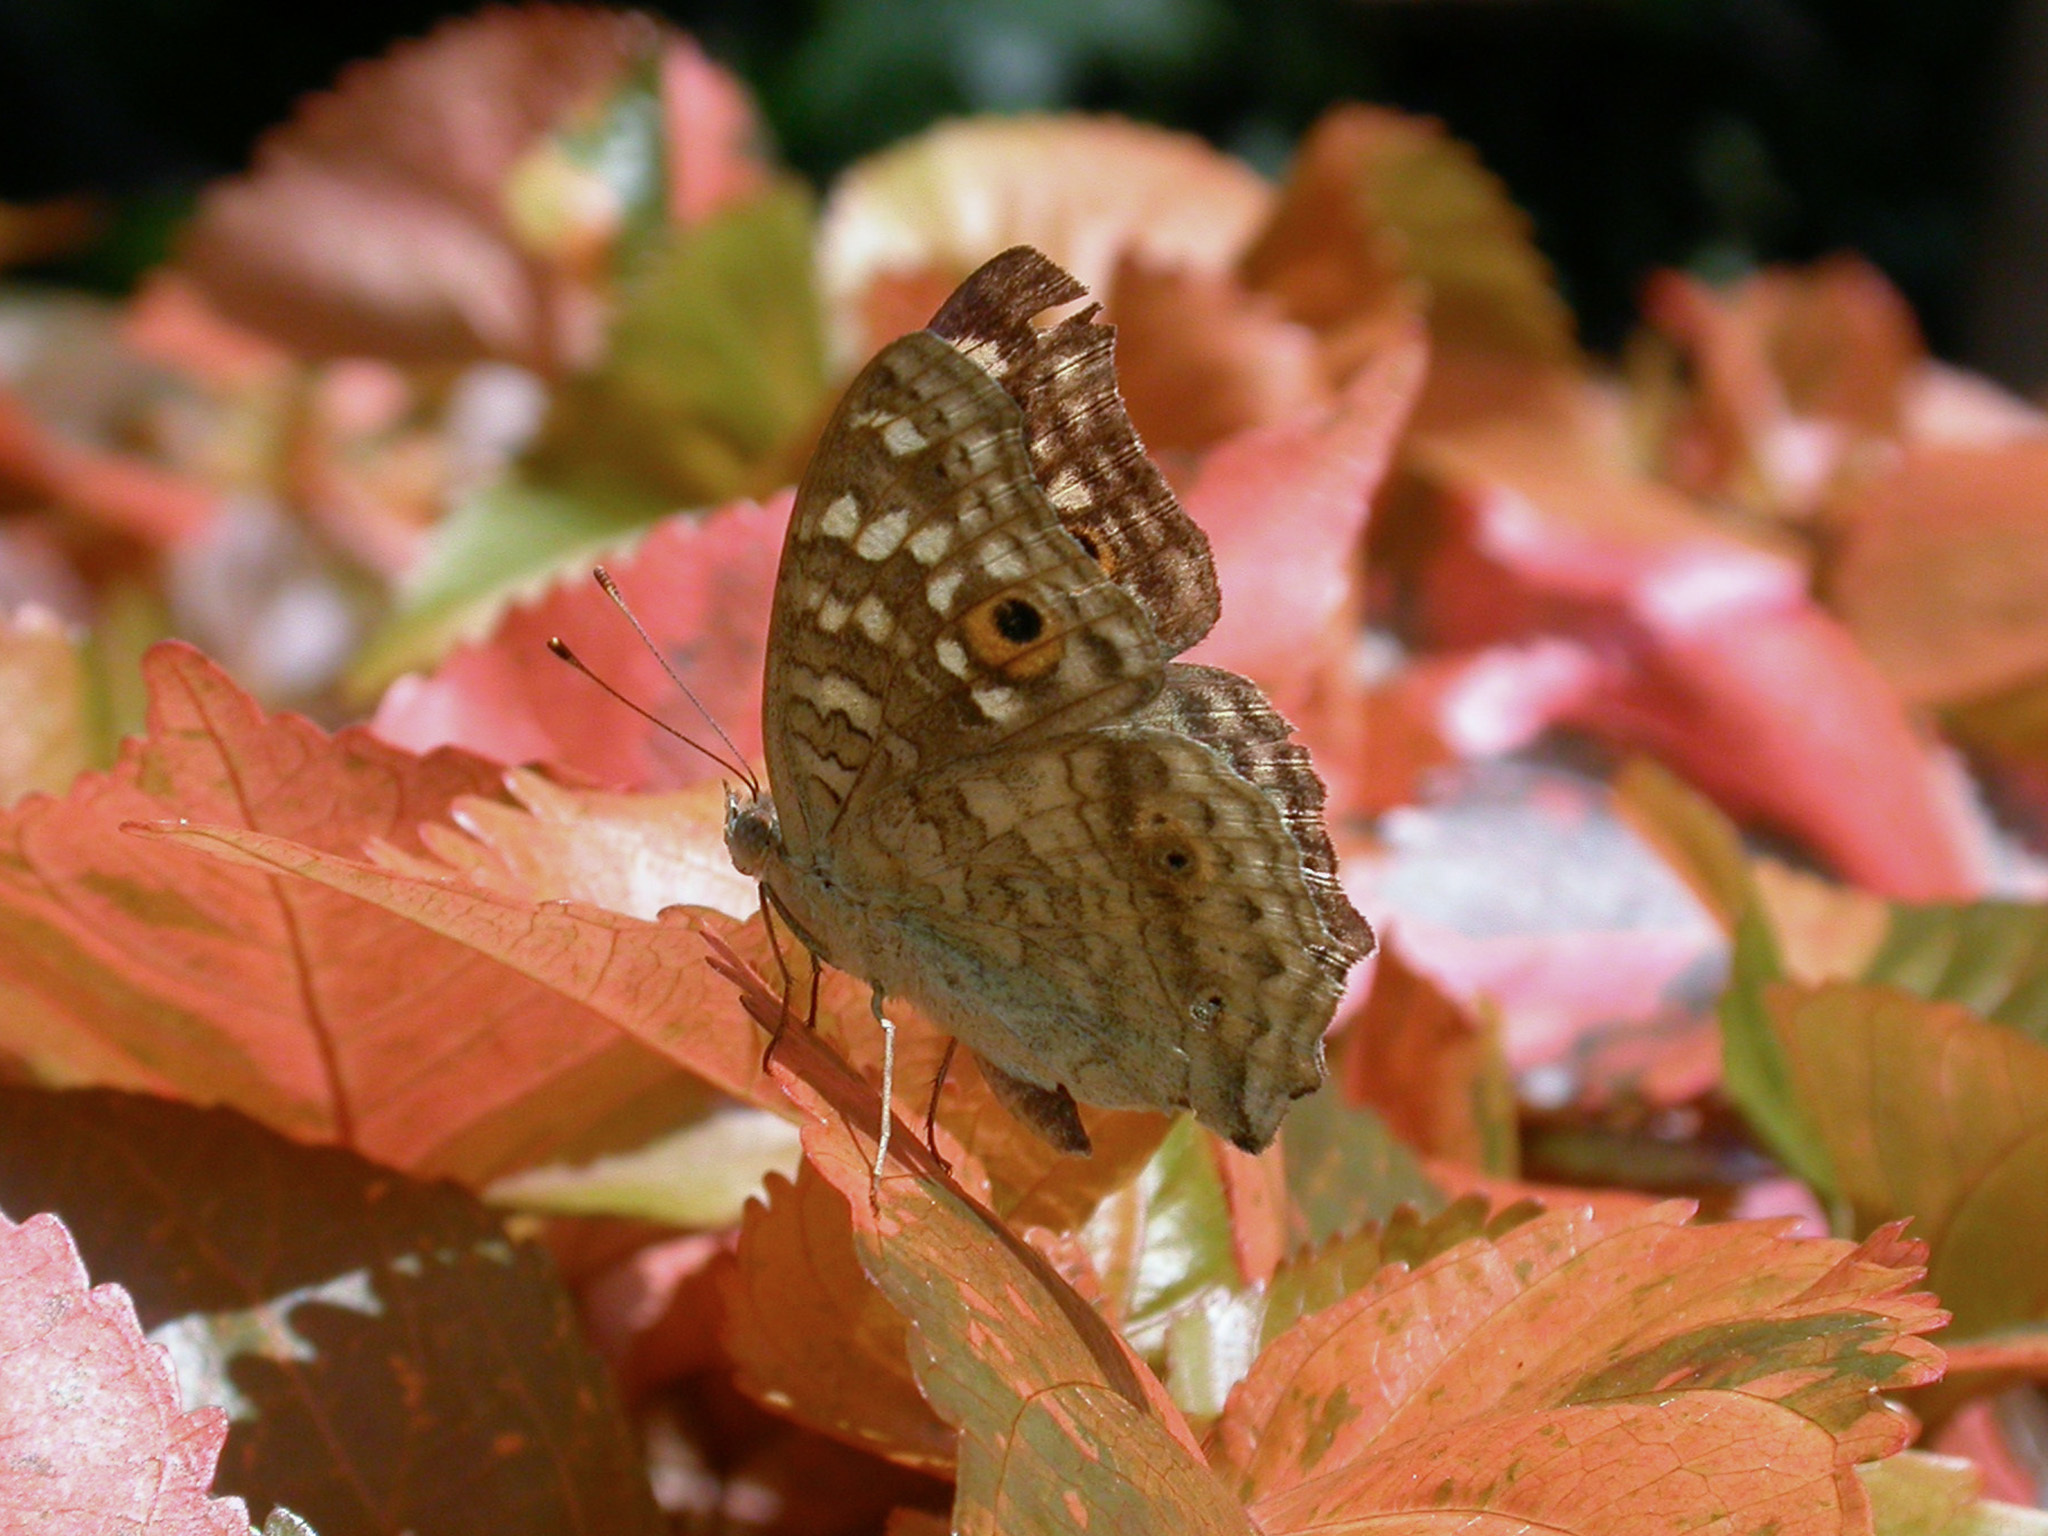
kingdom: Animalia
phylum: Arthropoda
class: Insecta
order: Lepidoptera
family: Nymphalidae
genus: Junonia
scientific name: Junonia lemonias
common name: Lemon pansy
